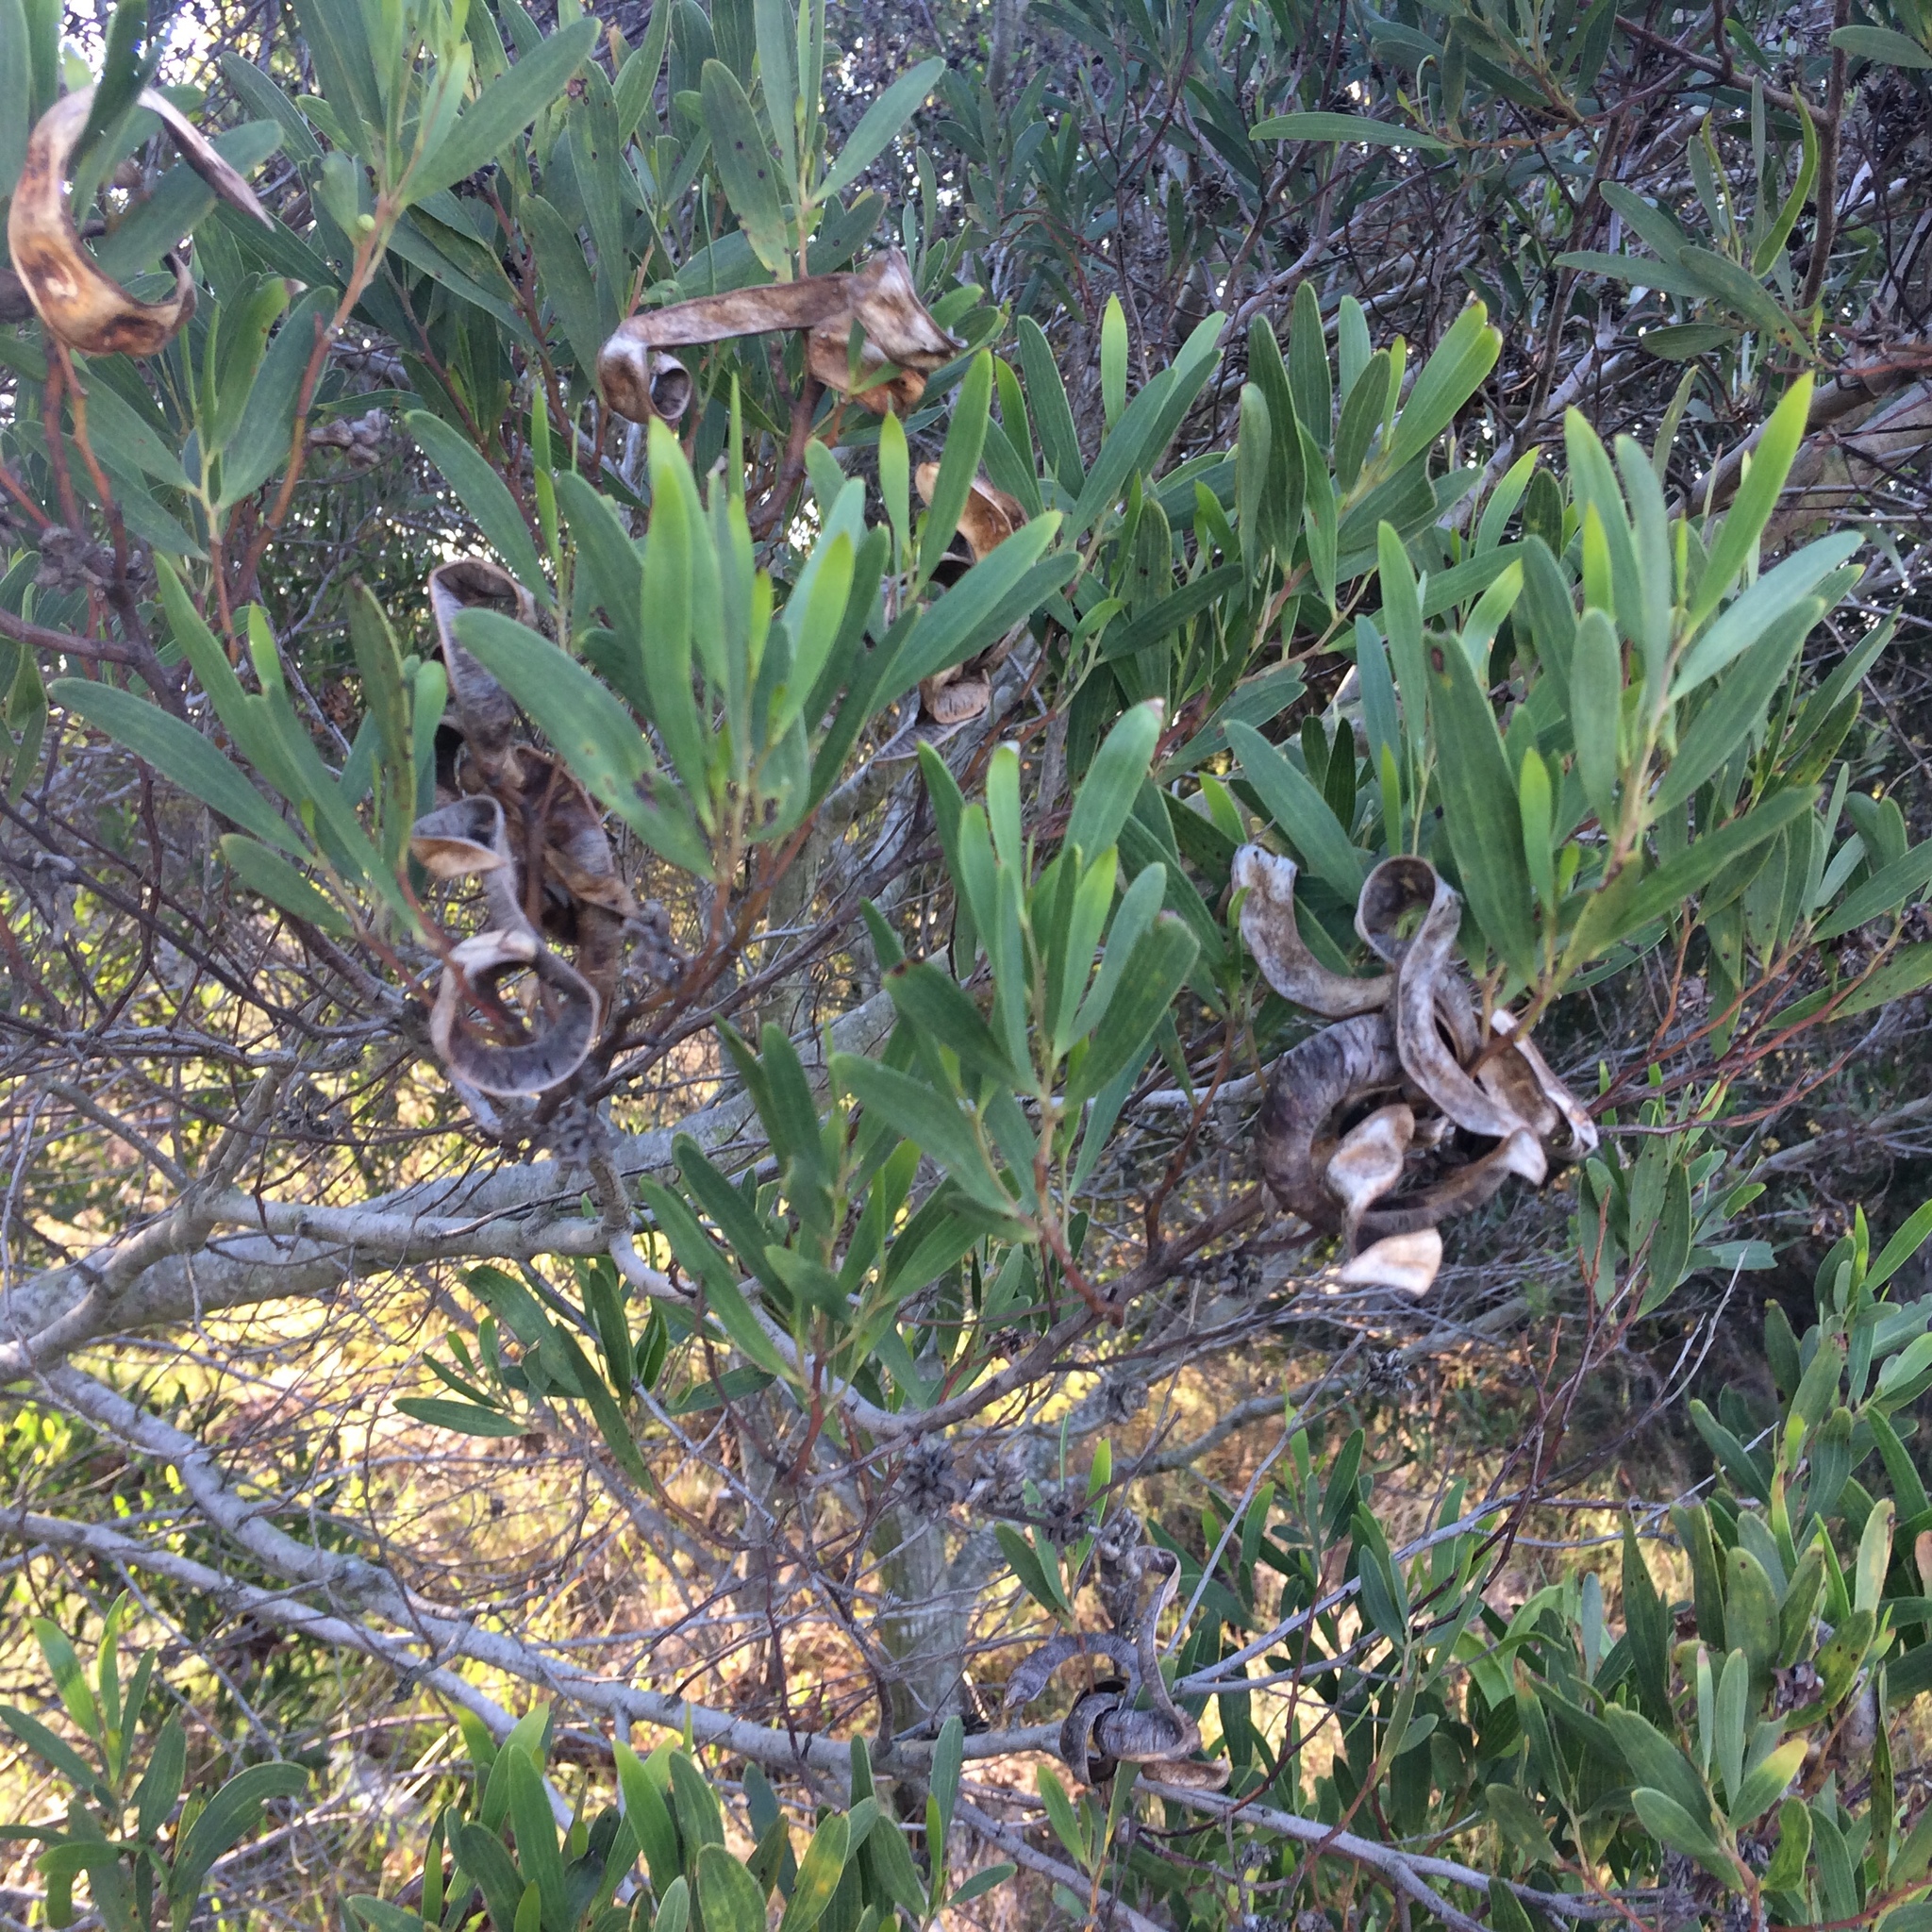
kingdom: Plantae
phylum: Tracheophyta
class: Magnoliopsida
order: Fabales
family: Fabaceae
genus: Acacia
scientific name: Acacia cyclops
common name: Coastal wattle
